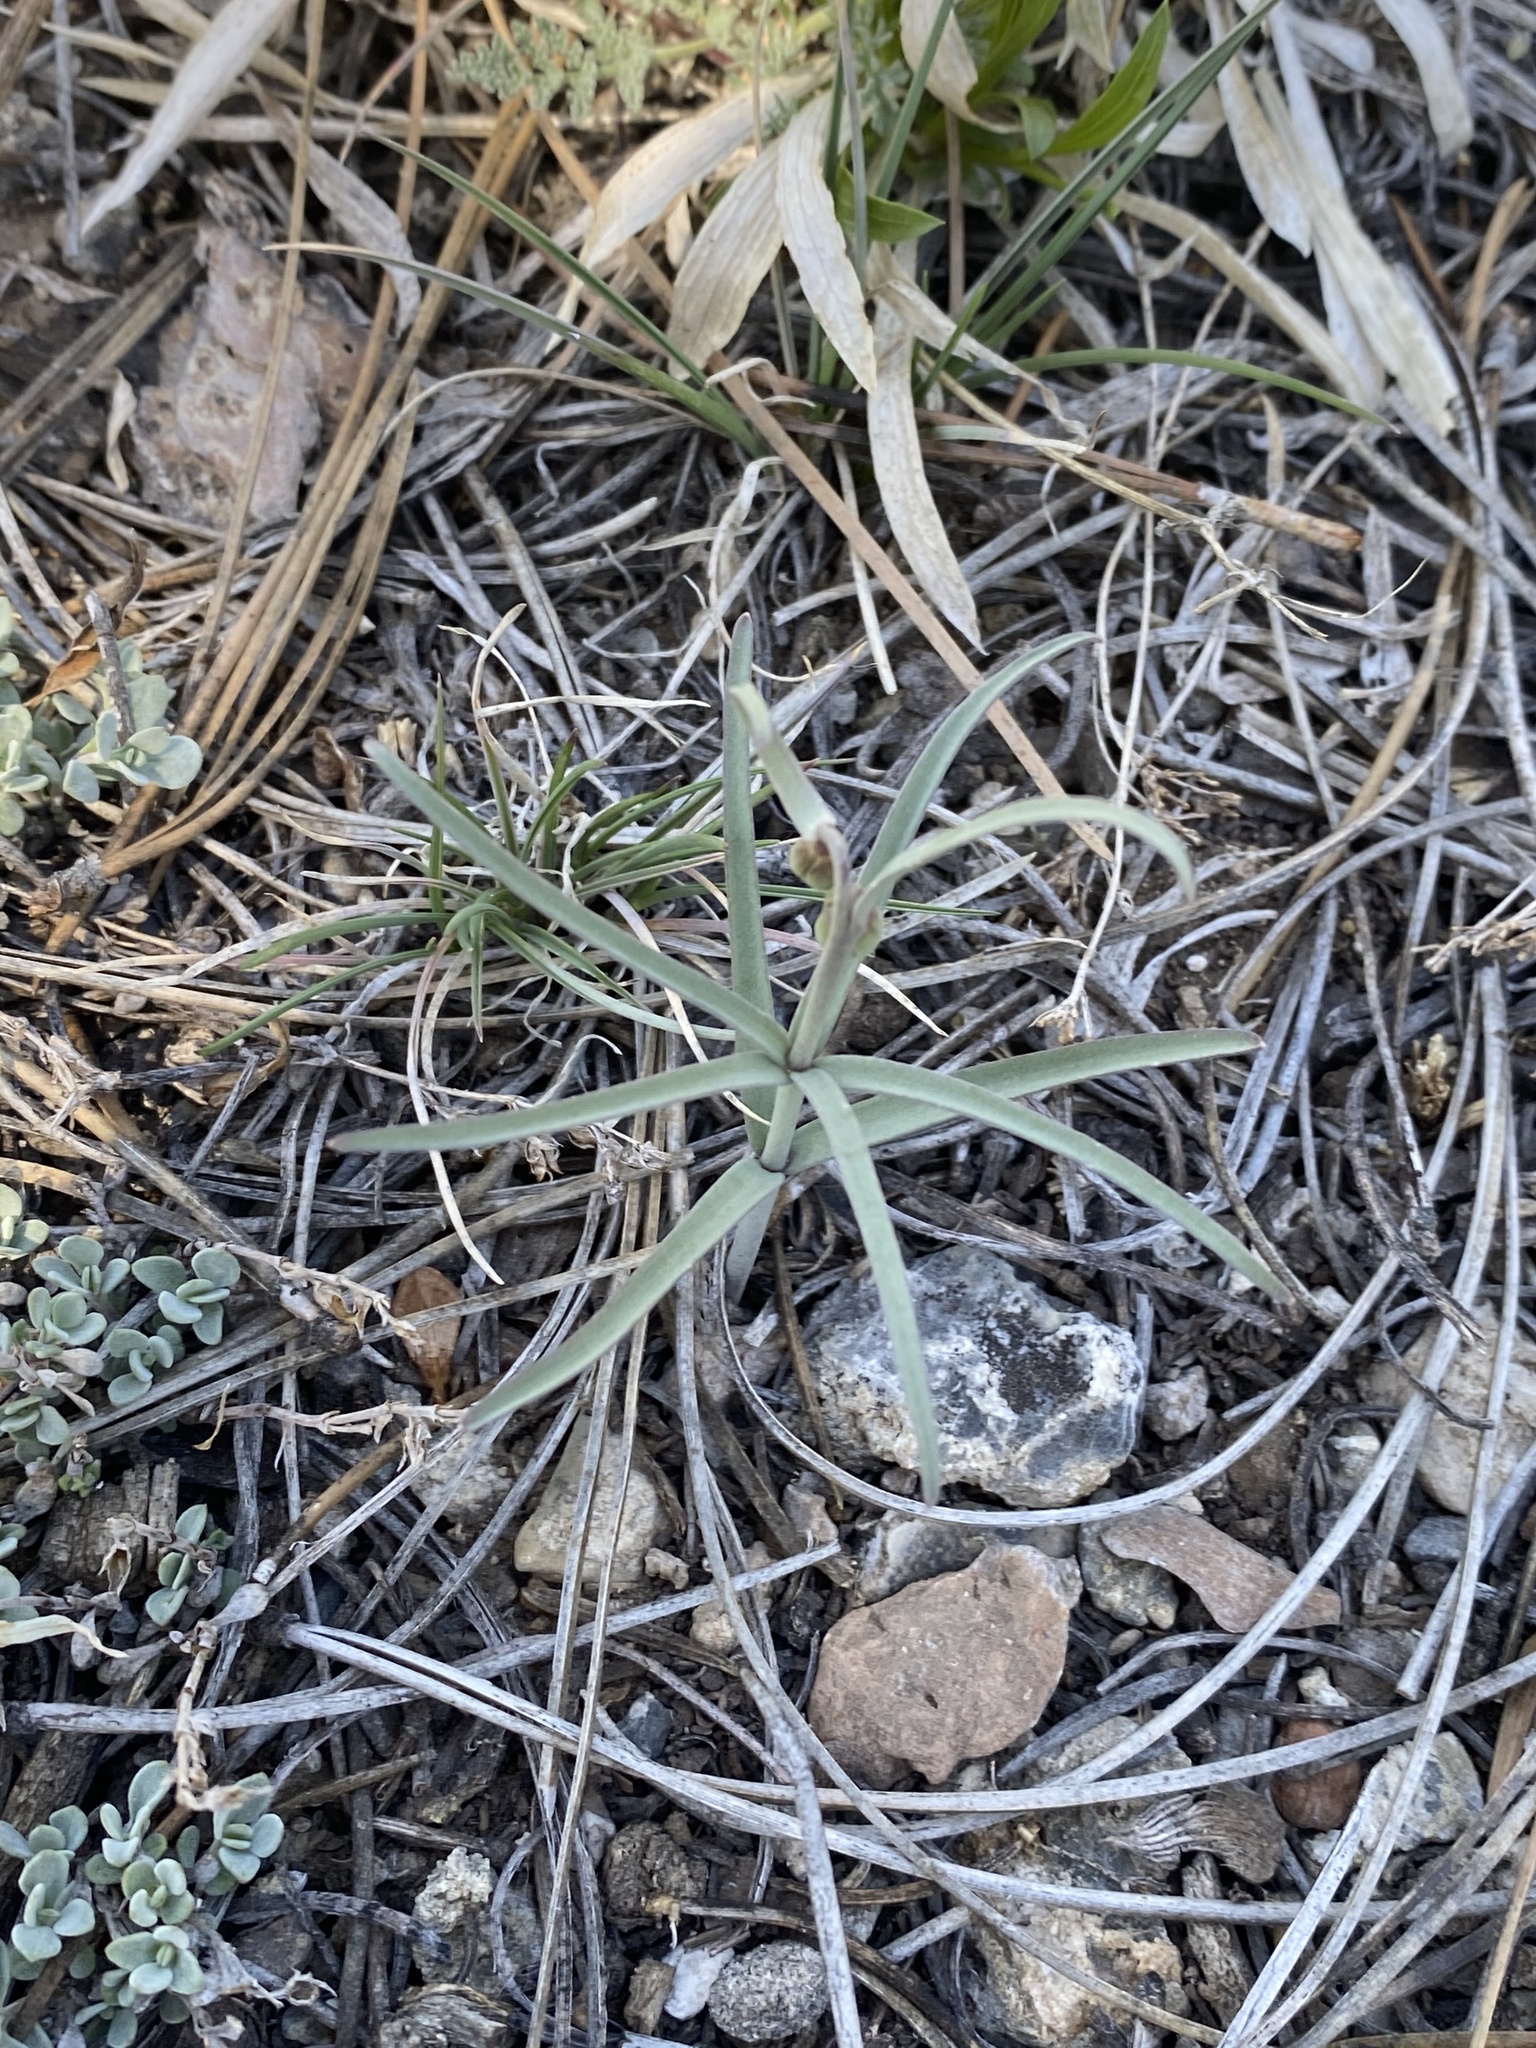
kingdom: Plantae
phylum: Tracheophyta
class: Liliopsida
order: Liliales
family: Liliaceae
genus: Fritillaria
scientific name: Fritillaria atropurpurea
